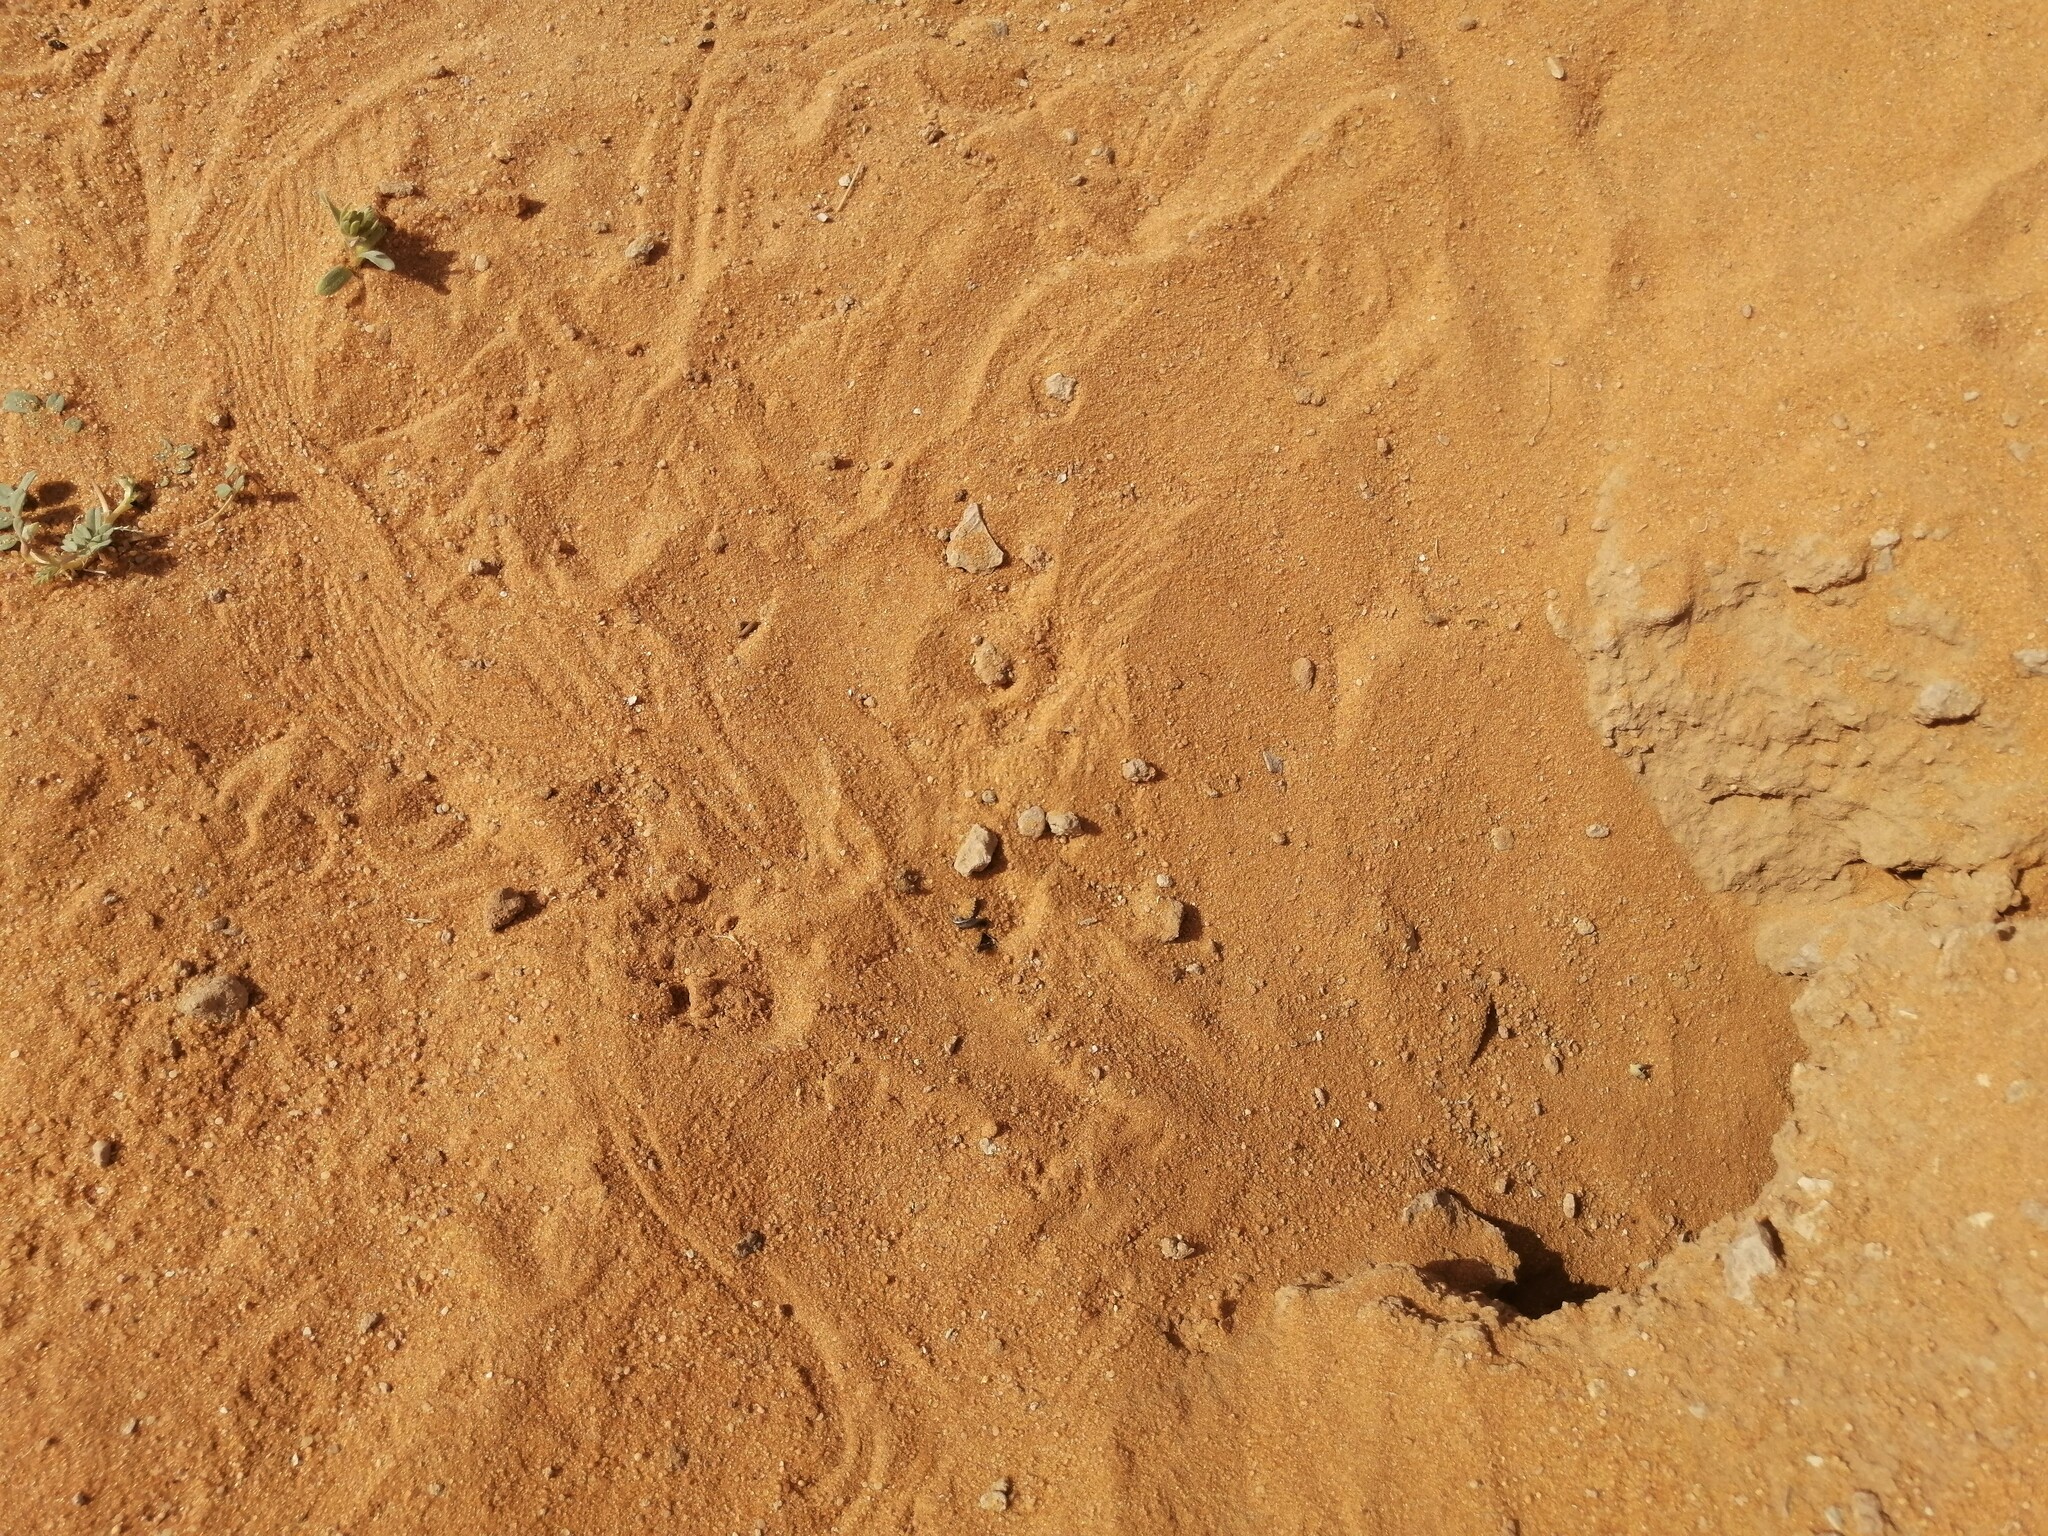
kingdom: Animalia
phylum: Chordata
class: Squamata
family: Agamidae
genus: Uromastyx
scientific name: Uromastyx aegyptia
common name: Egyptian mastigure
